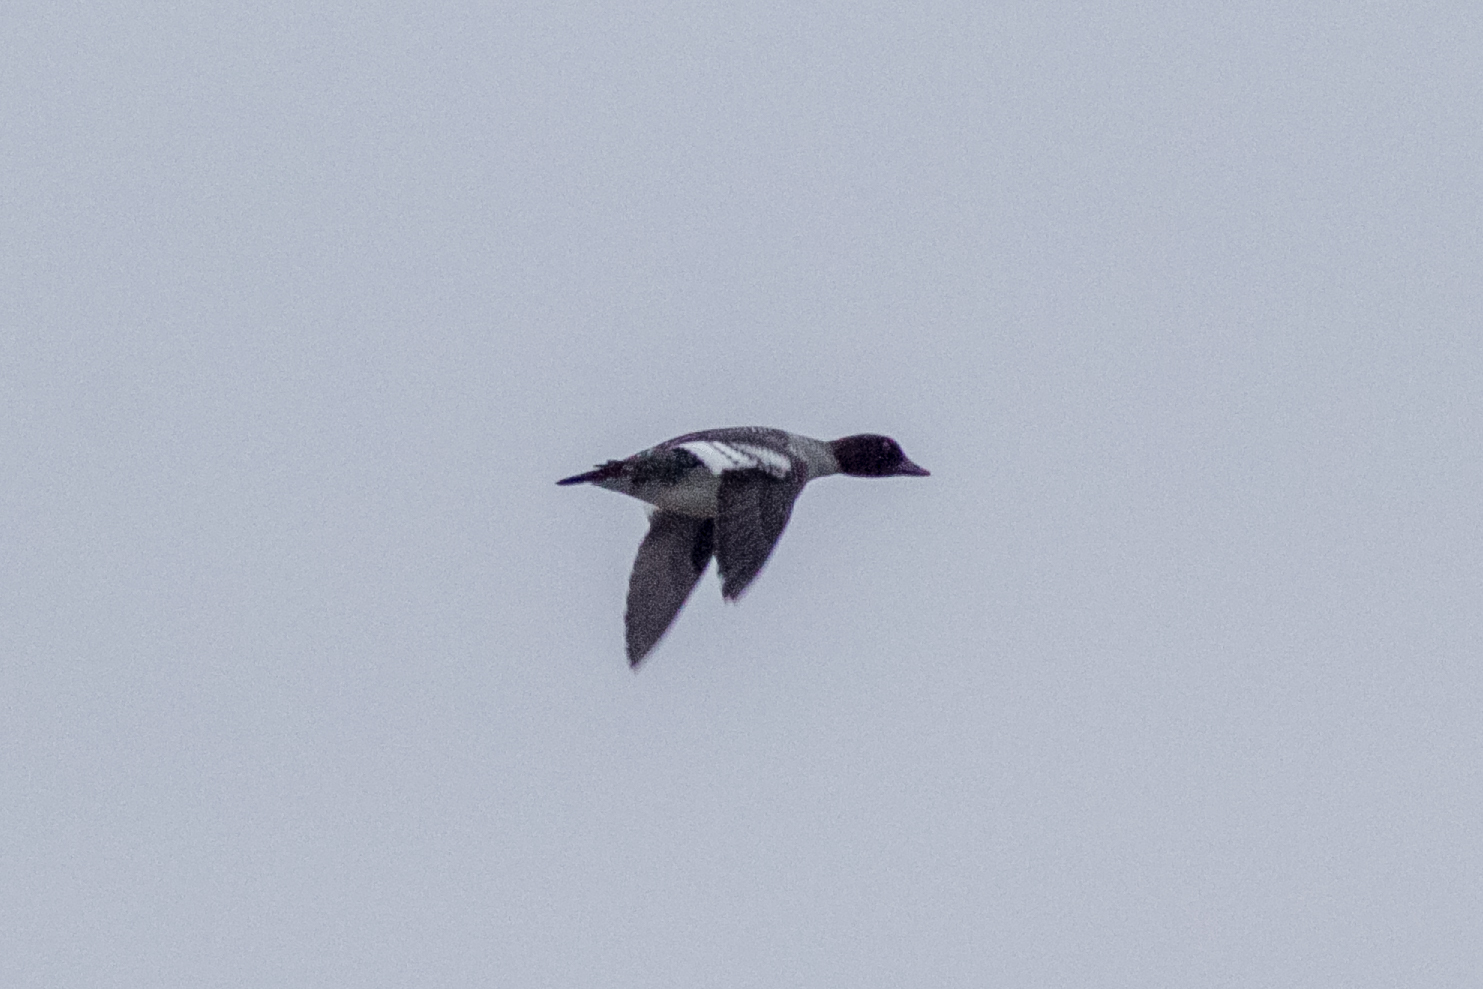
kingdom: Animalia
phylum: Chordata
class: Aves
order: Anseriformes
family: Anatidae
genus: Bucephala
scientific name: Bucephala clangula
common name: Common goldeneye
